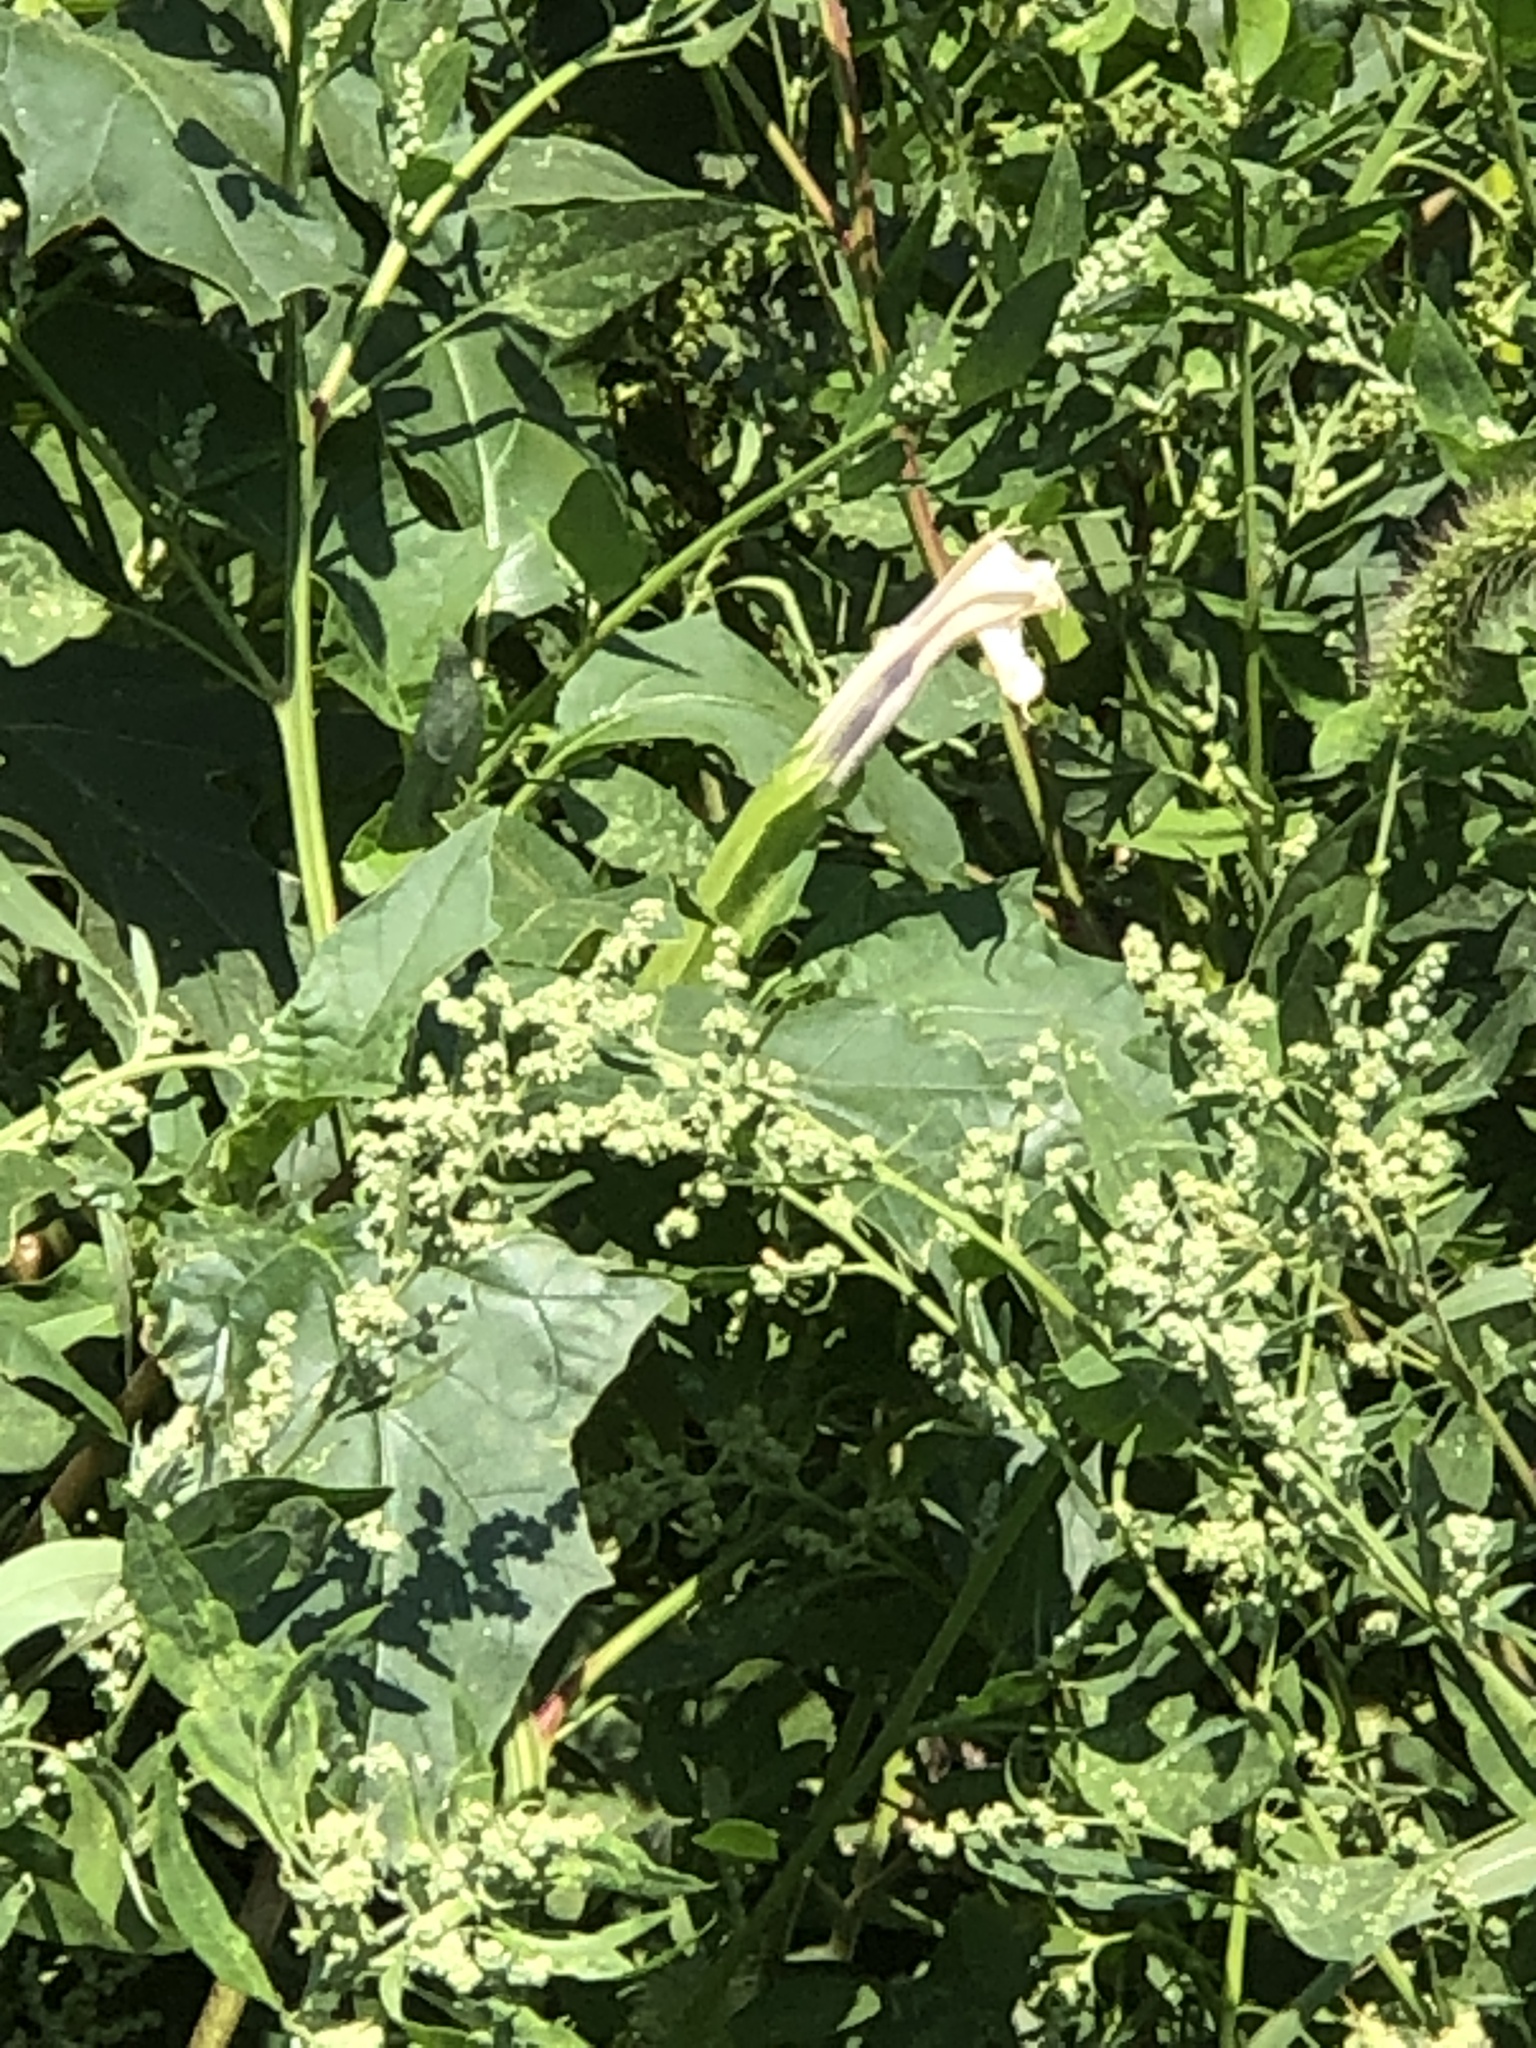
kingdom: Plantae
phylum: Tracheophyta
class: Magnoliopsida
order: Solanales
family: Solanaceae
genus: Datura
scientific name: Datura stramonium
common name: Thorn-apple
